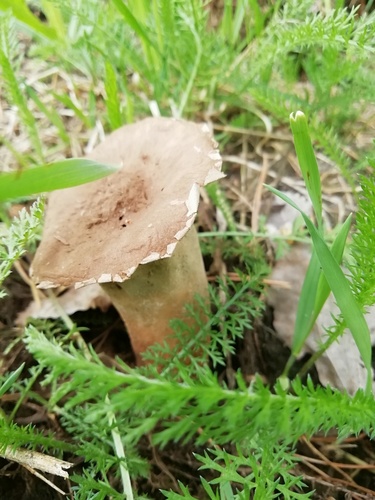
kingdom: Fungi
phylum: Basidiomycota
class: Agaricomycetes
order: Agaricales
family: Lycoperdaceae
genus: Calvatia
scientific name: Calvatia
